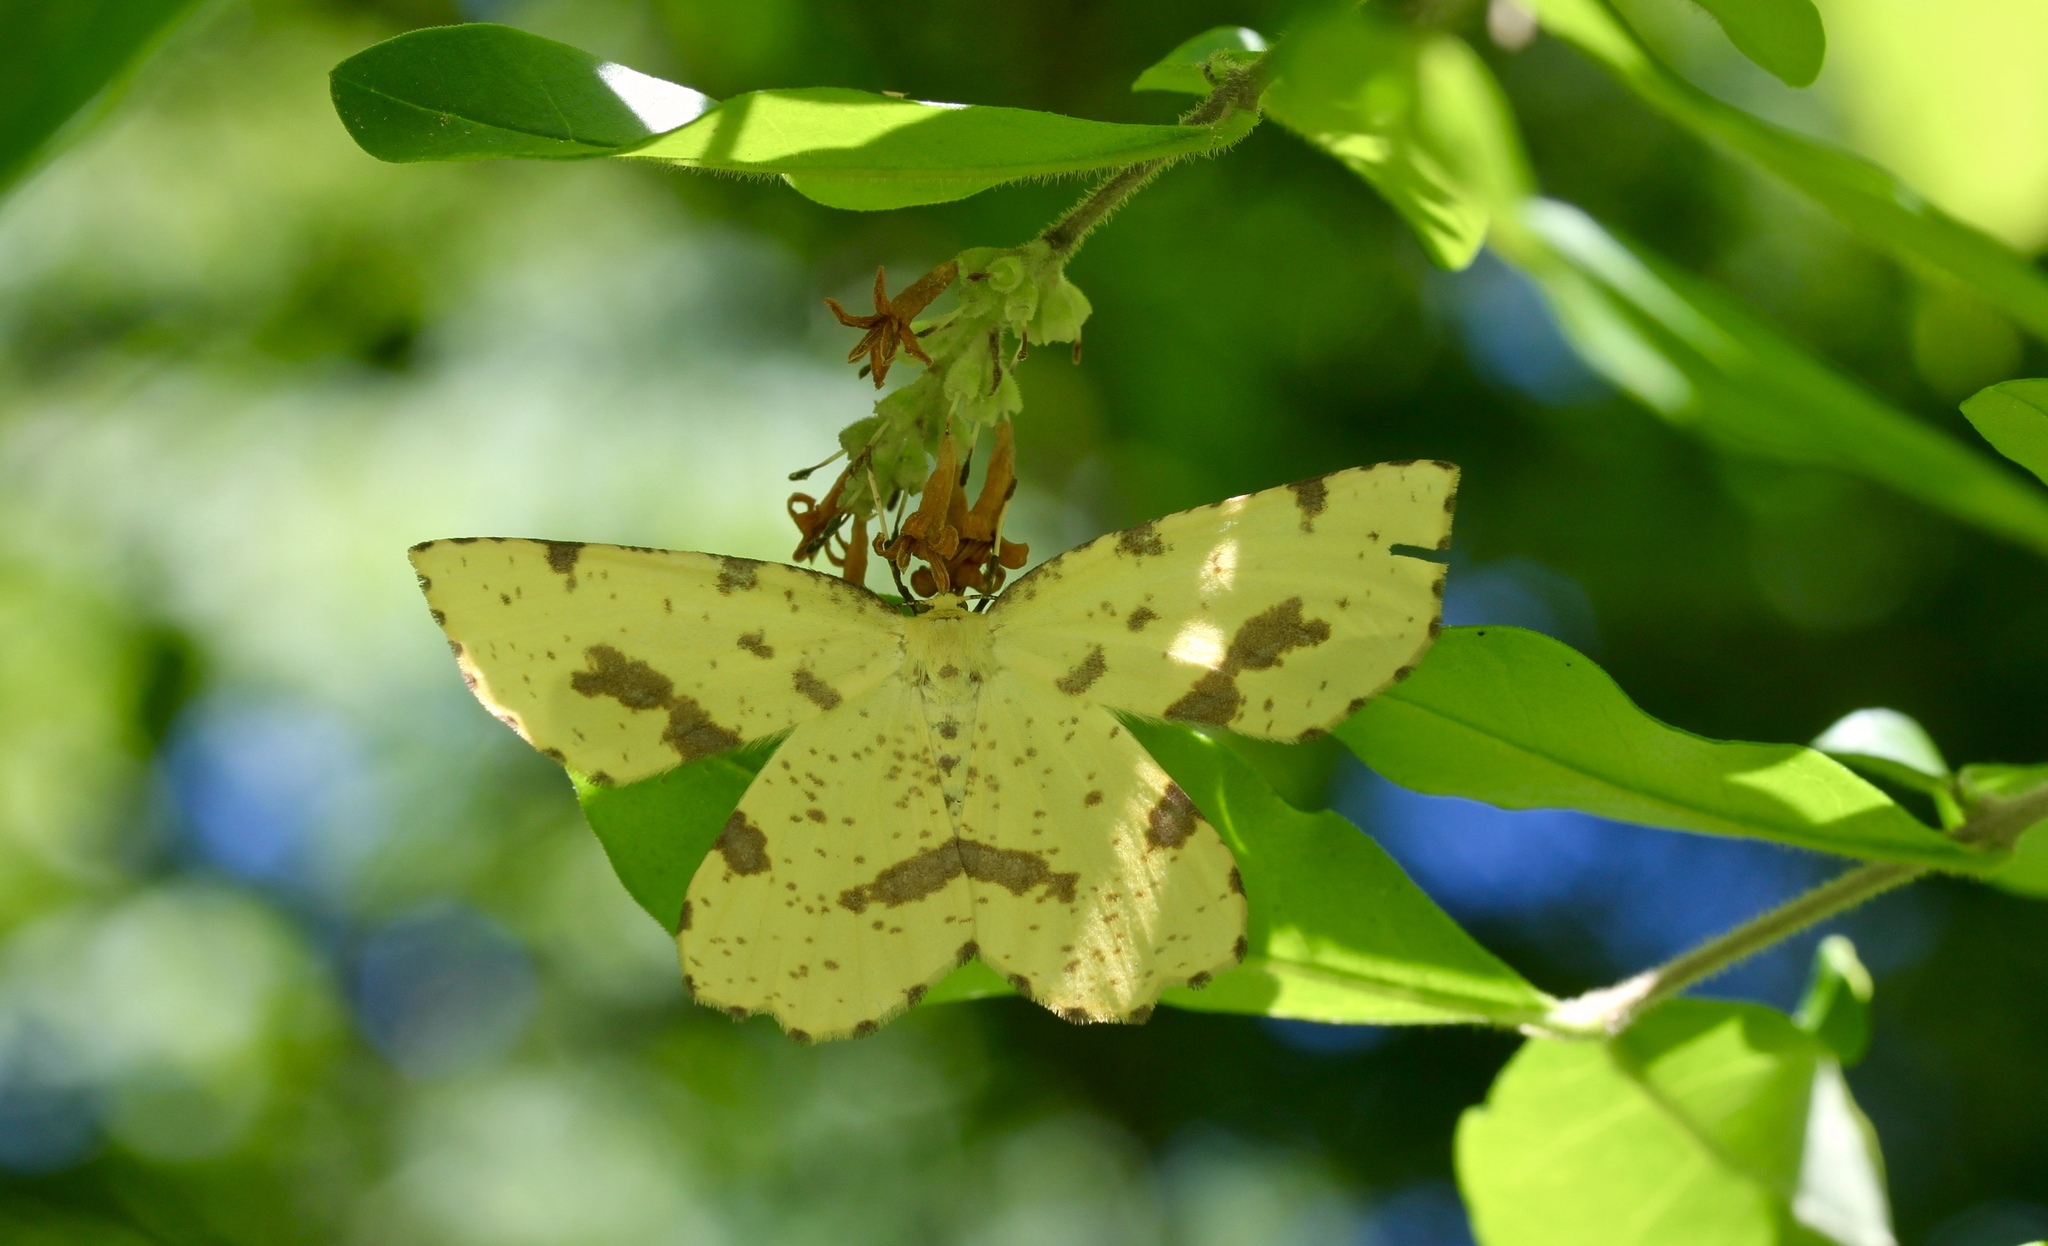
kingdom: Animalia
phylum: Arthropoda
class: Insecta
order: Lepidoptera
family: Geometridae
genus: Xanthotype
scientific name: Xanthotype
